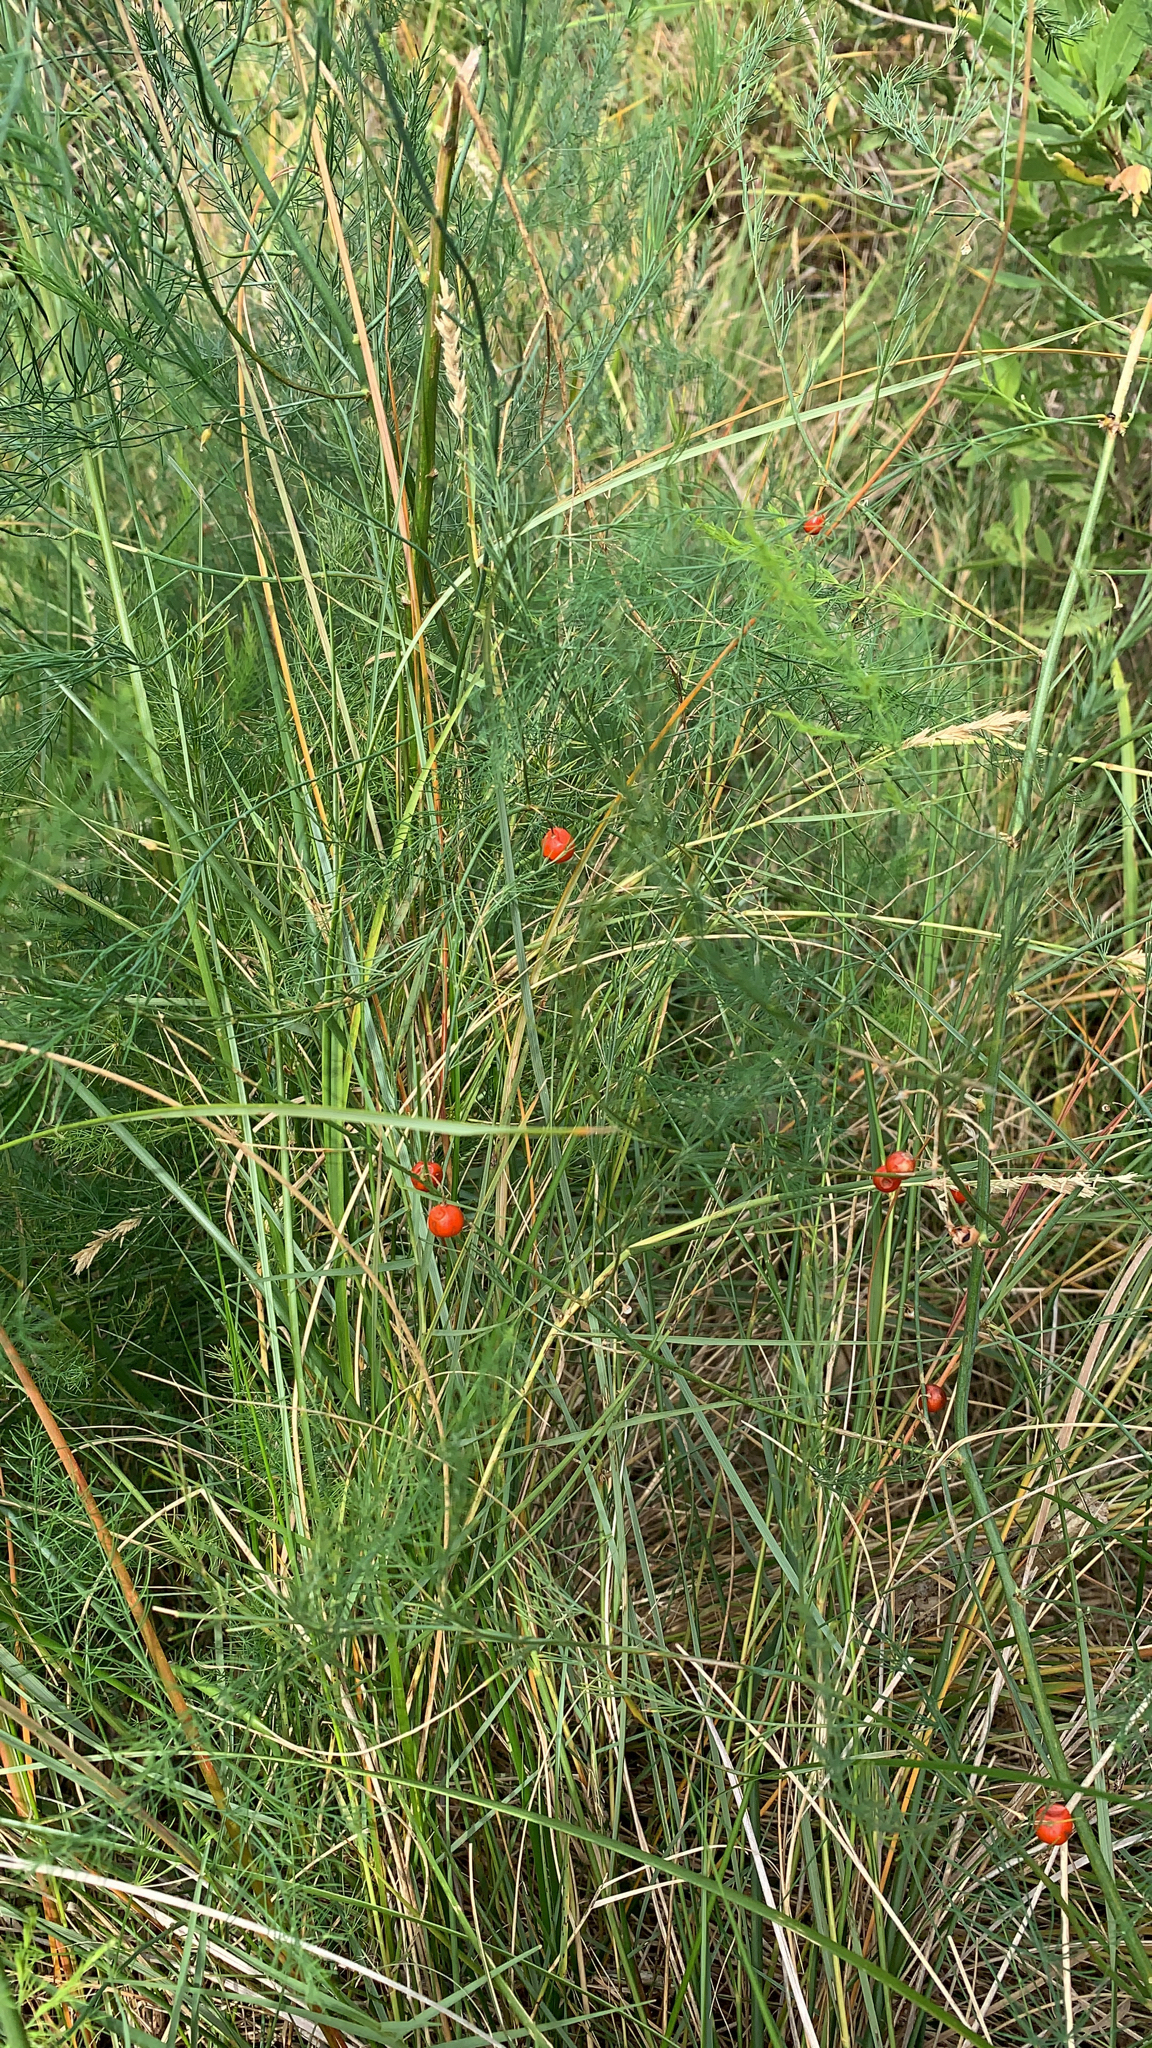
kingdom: Plantae
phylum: Tracheophyta
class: Liliopsida
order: Asparagales
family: Asparagaceae
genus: Asparagus
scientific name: Asparagus officinalis
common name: Garden asparagus
